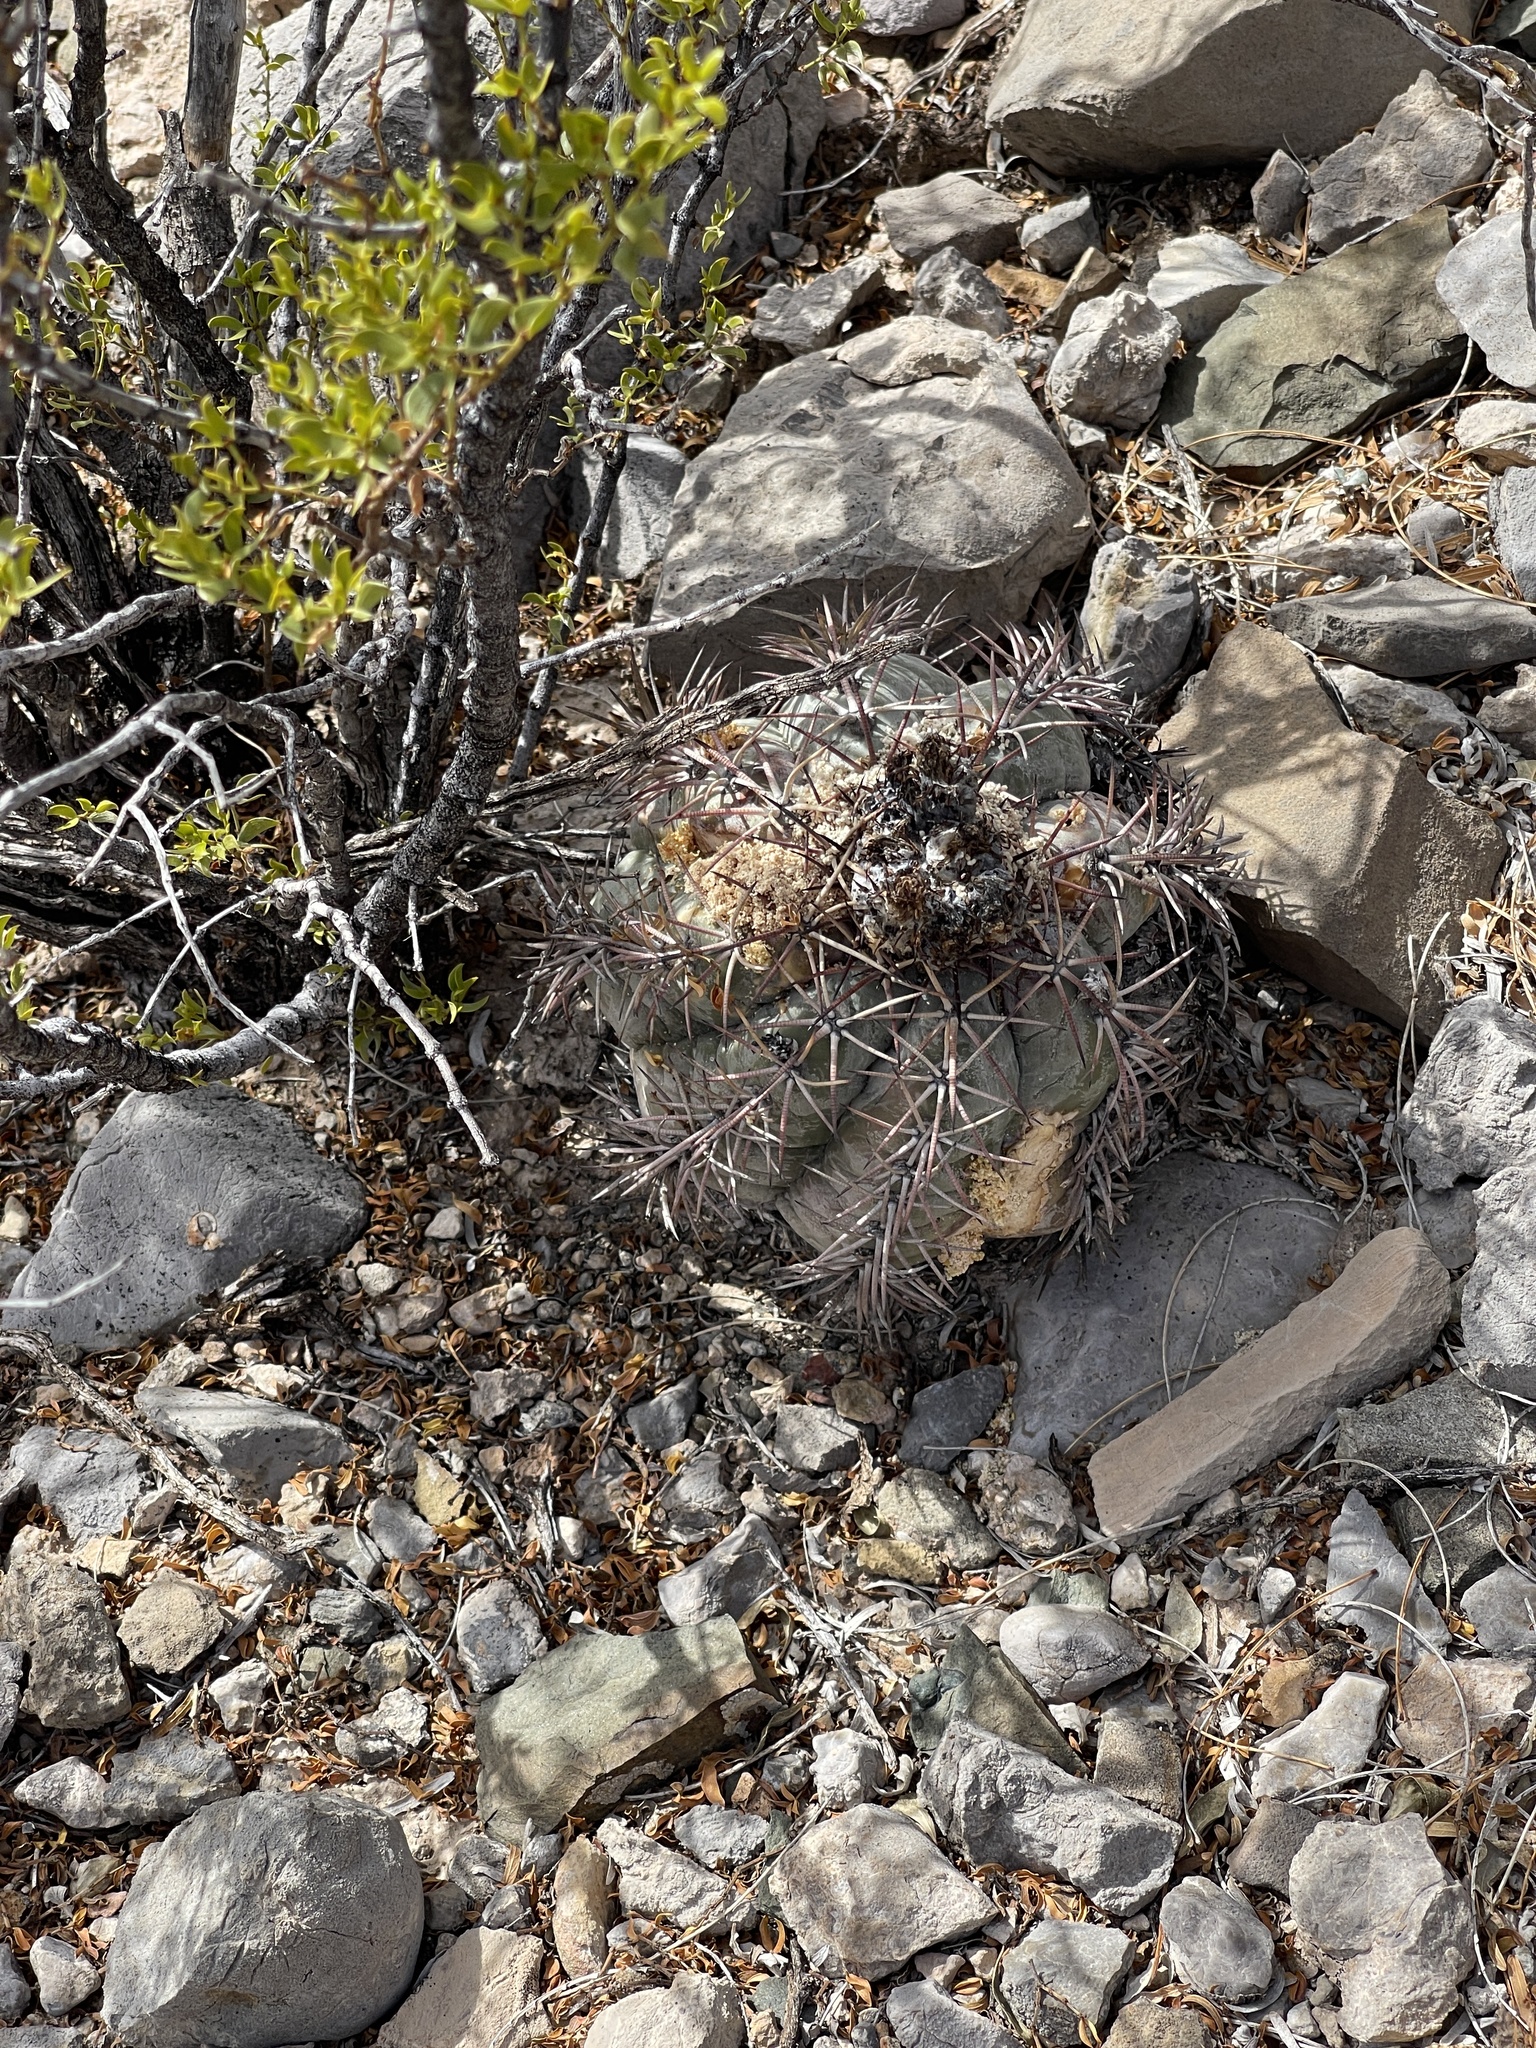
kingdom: Plantae
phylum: Tracheophyta
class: Magnoliopsida
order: Caryophyllales
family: Cactaceae
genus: Echinocactus
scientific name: Echinocactus horizonthalonius
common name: Devilshead
